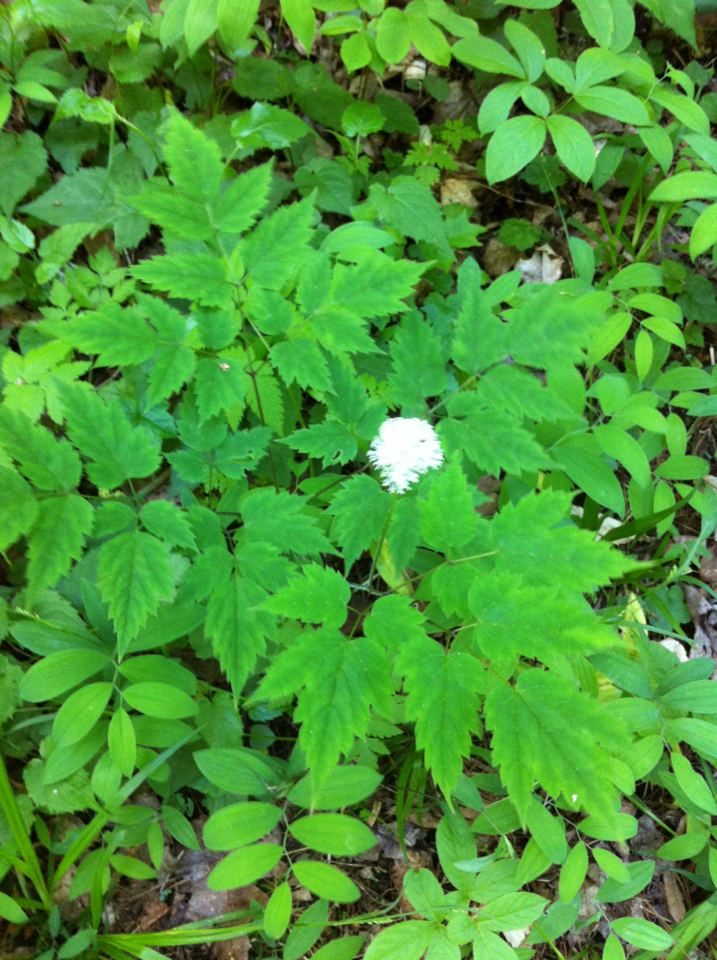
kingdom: Plantae
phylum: Tracheophyta
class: Magnoliopsida
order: Ranunculales
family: Ranunculaceae
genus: Actaea
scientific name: Actaea pachypoda
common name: Doll's-eyes
